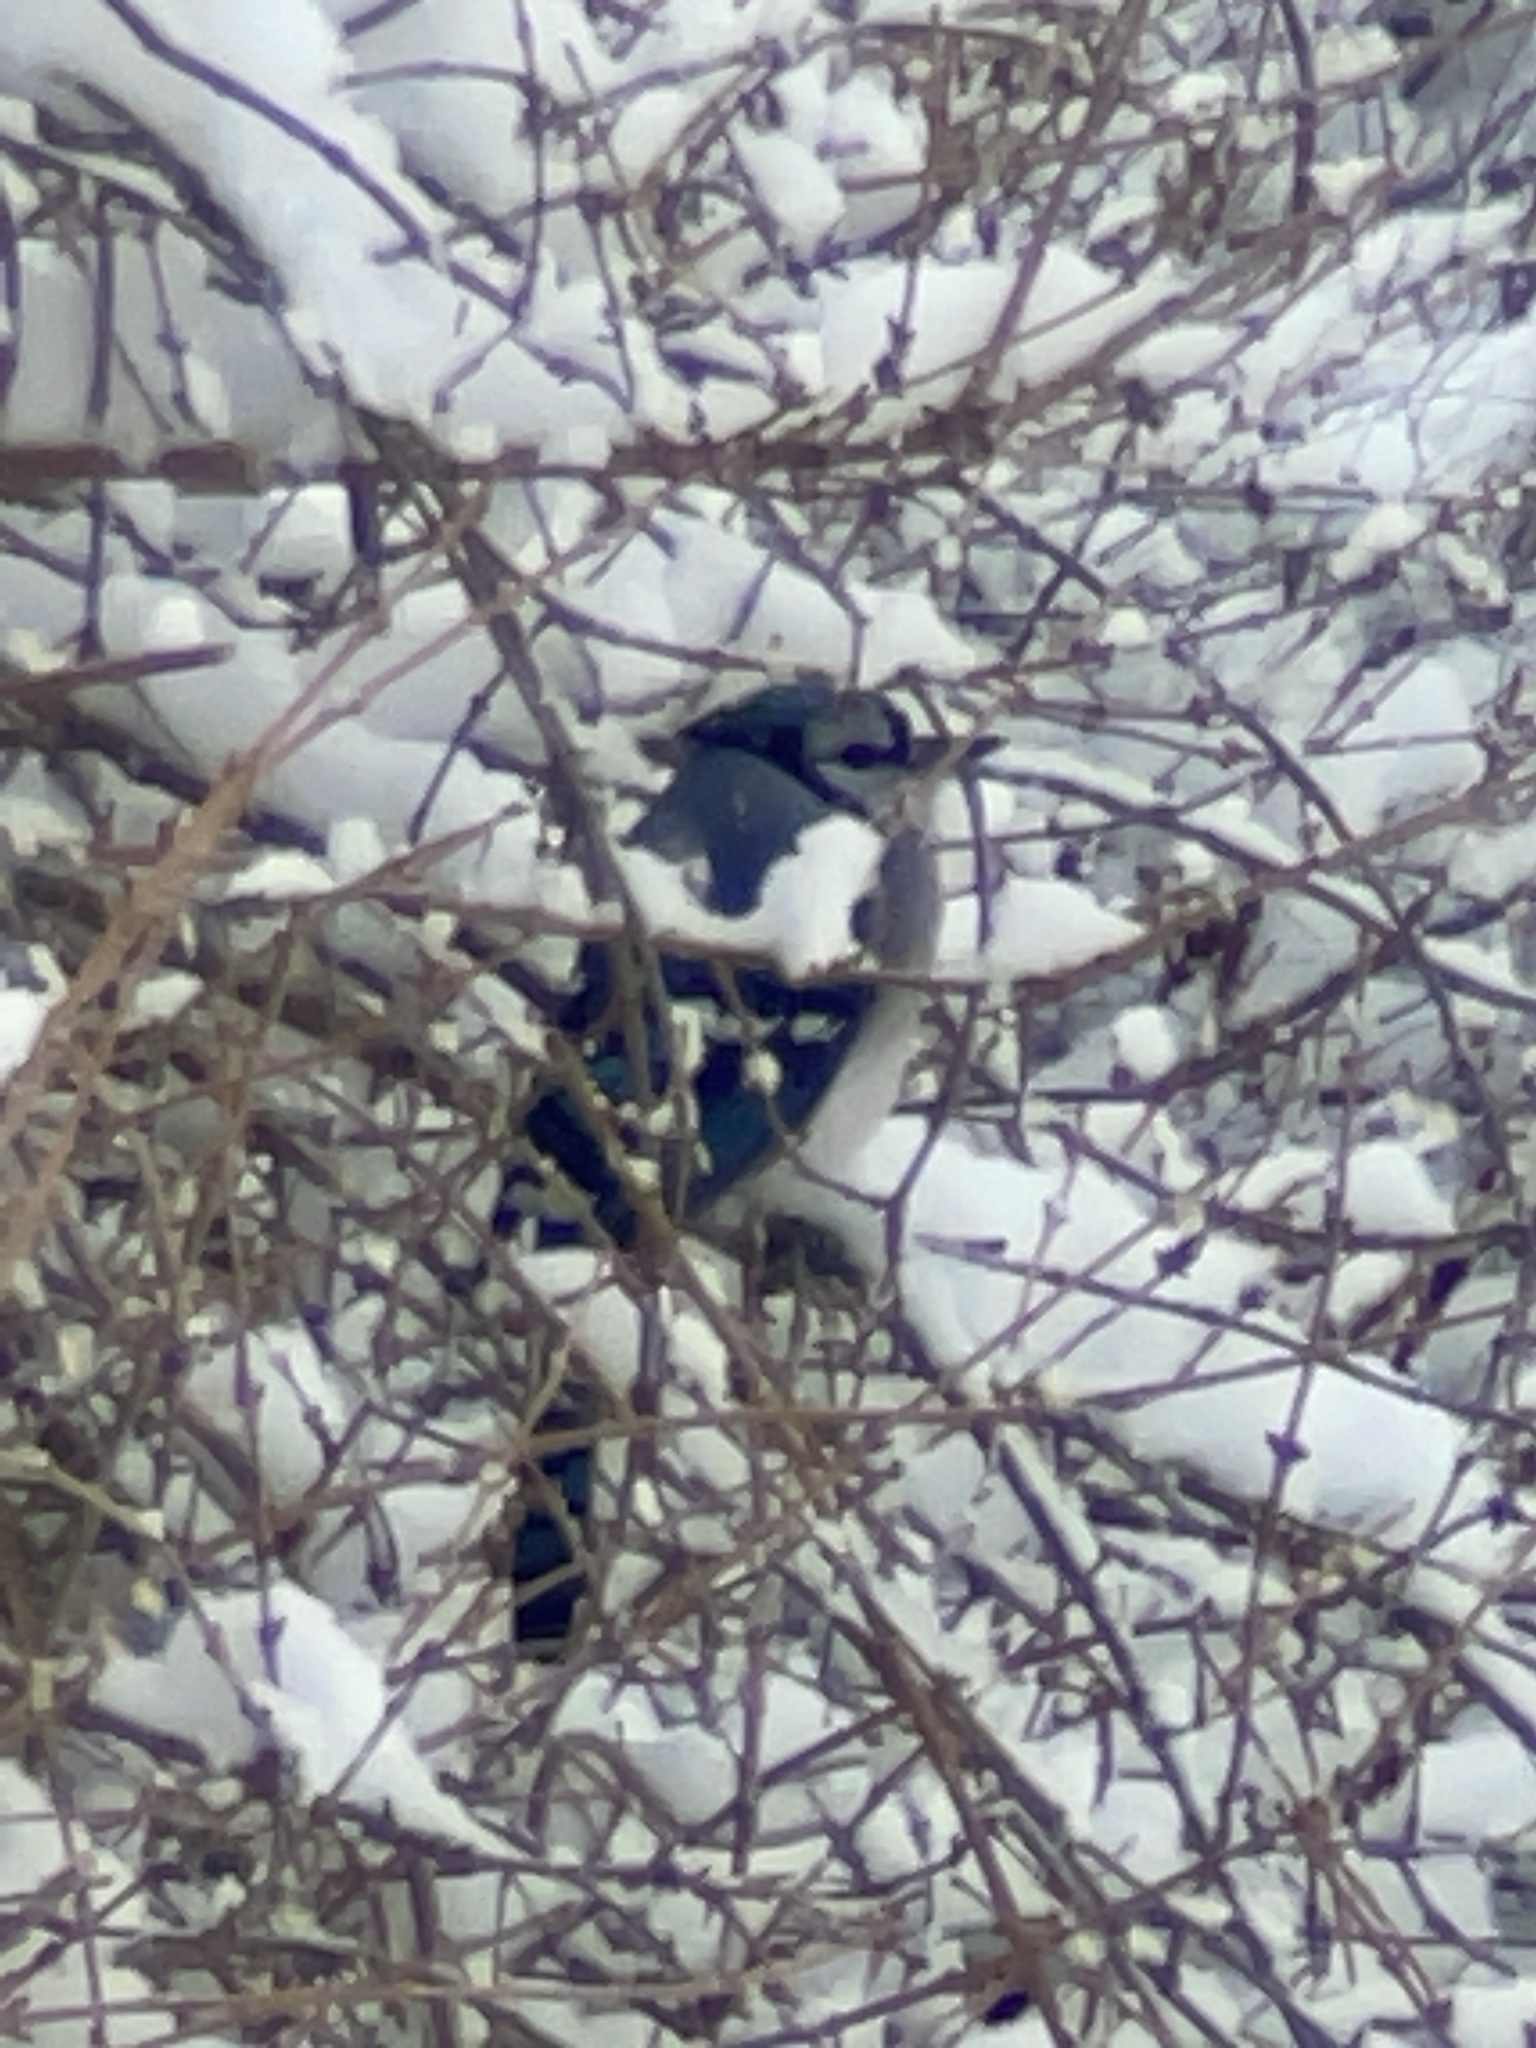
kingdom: Animalia
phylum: Chordata
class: Aves
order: Passeriformes
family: Corvidae
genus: Cyanocitta
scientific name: Cyanocitta cristata
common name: Blue jay
